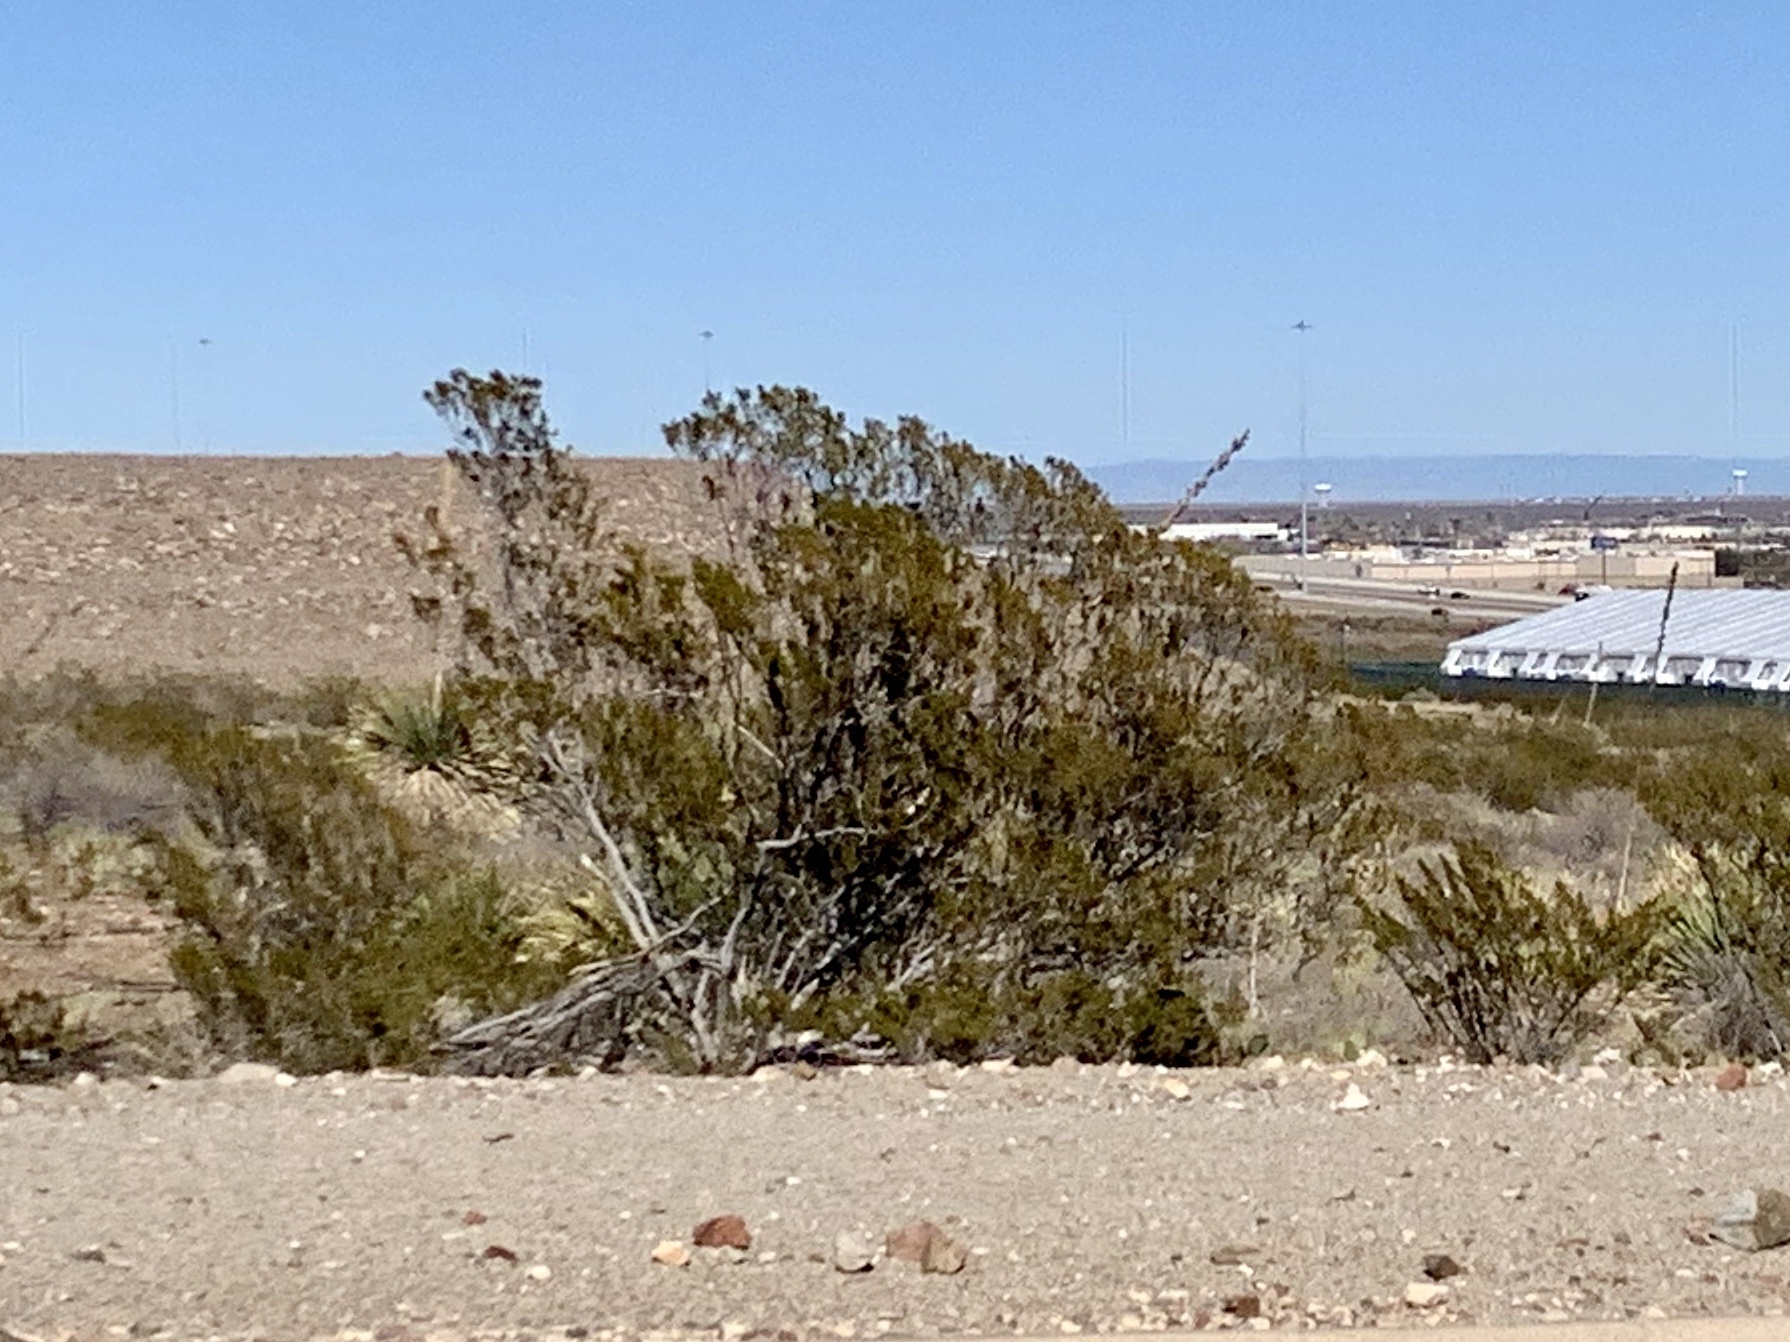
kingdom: Plantae
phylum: Tracheophyta
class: Magnoliopsida
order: Zygophyllales
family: Zygophyllaceae
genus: Larrea
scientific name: Larrea tridentata
